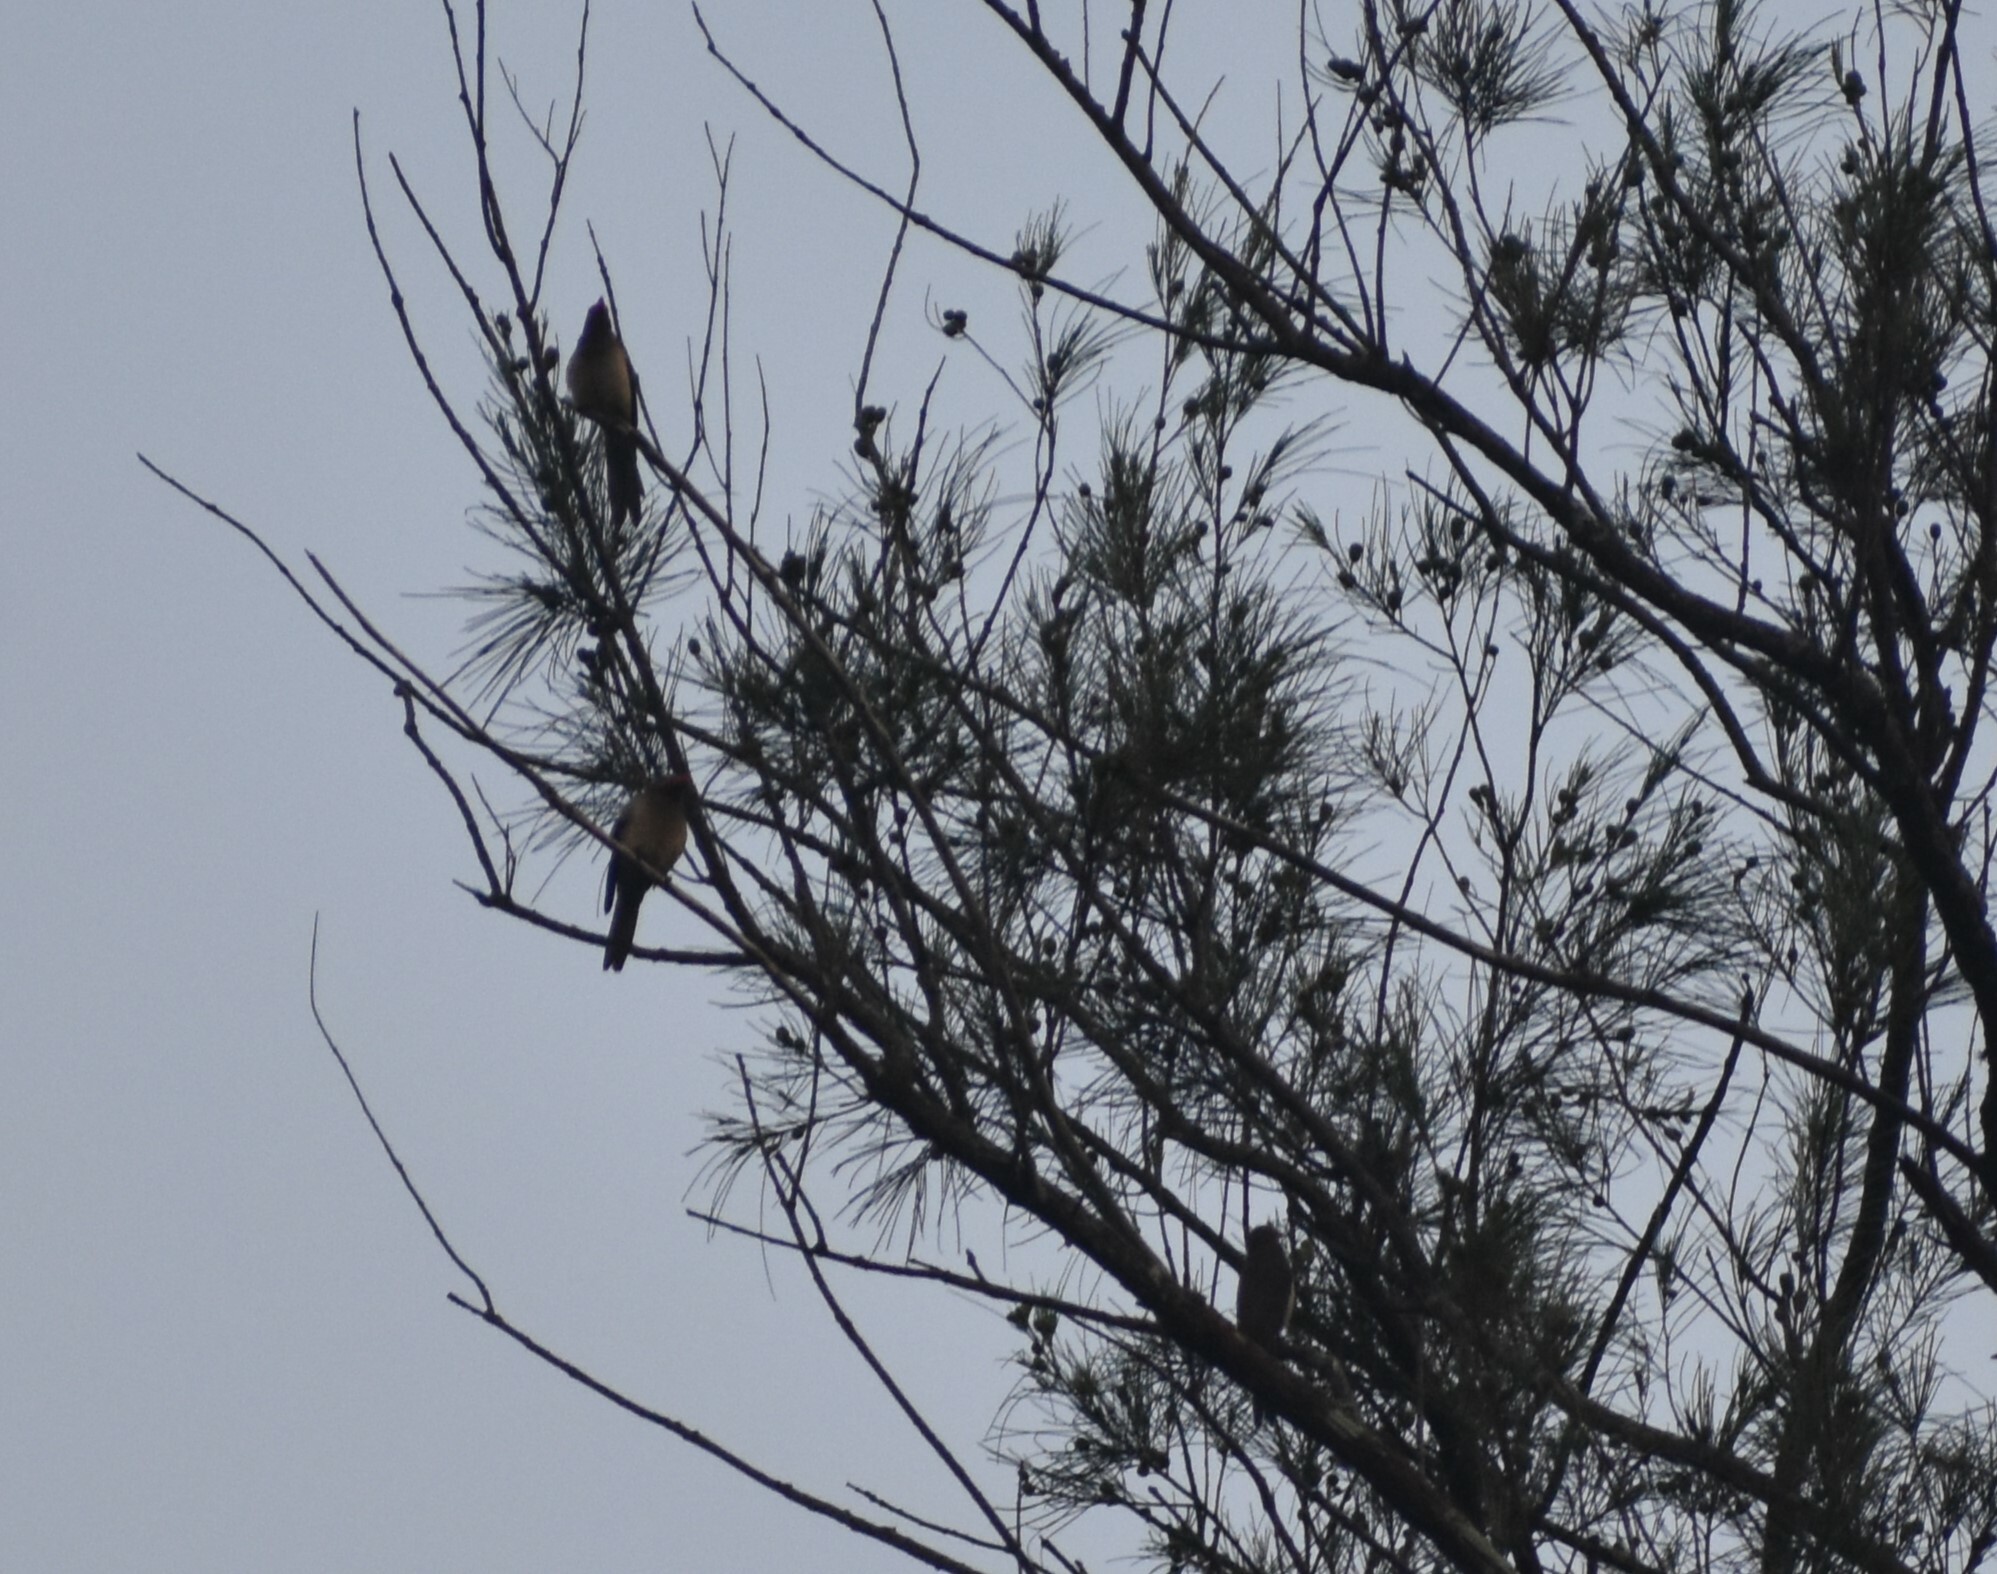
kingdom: Animalia
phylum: Chordata
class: Aves
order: Passeriformes
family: Buphagidae
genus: Buphagus
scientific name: Buphagus erythrorhynchus
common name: Red-billed oxpecker
